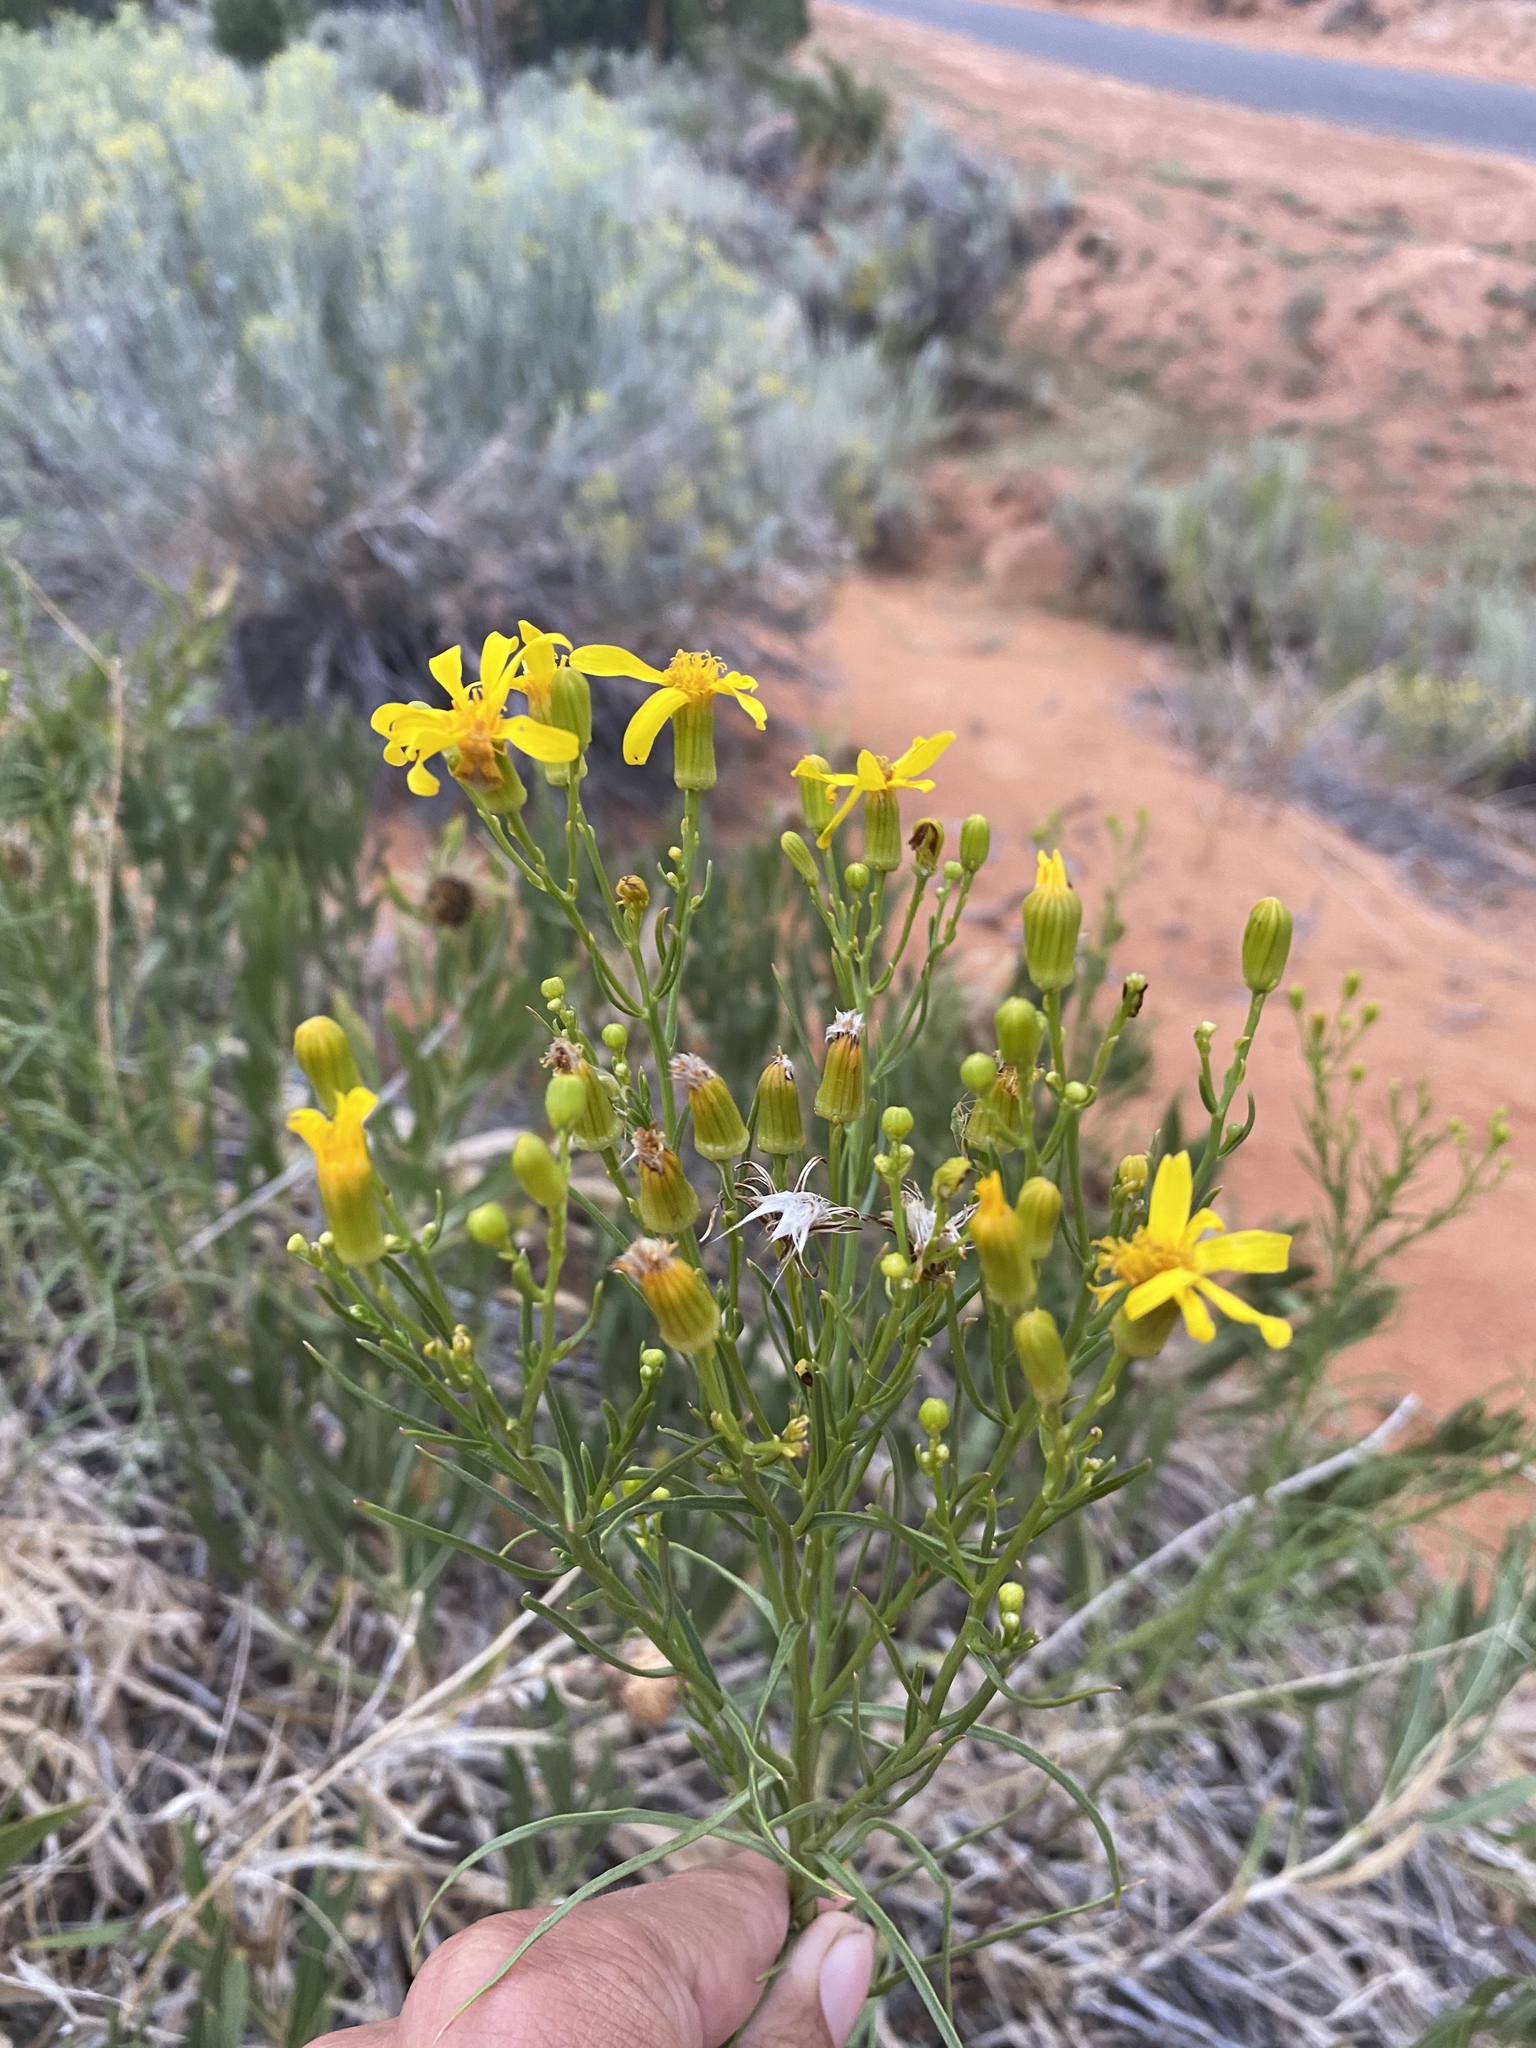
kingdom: Plantae
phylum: Tracheophyta
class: Magnoliopsida
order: Asterales
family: Asteraceae
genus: Senecio
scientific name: Senecio spartioides
